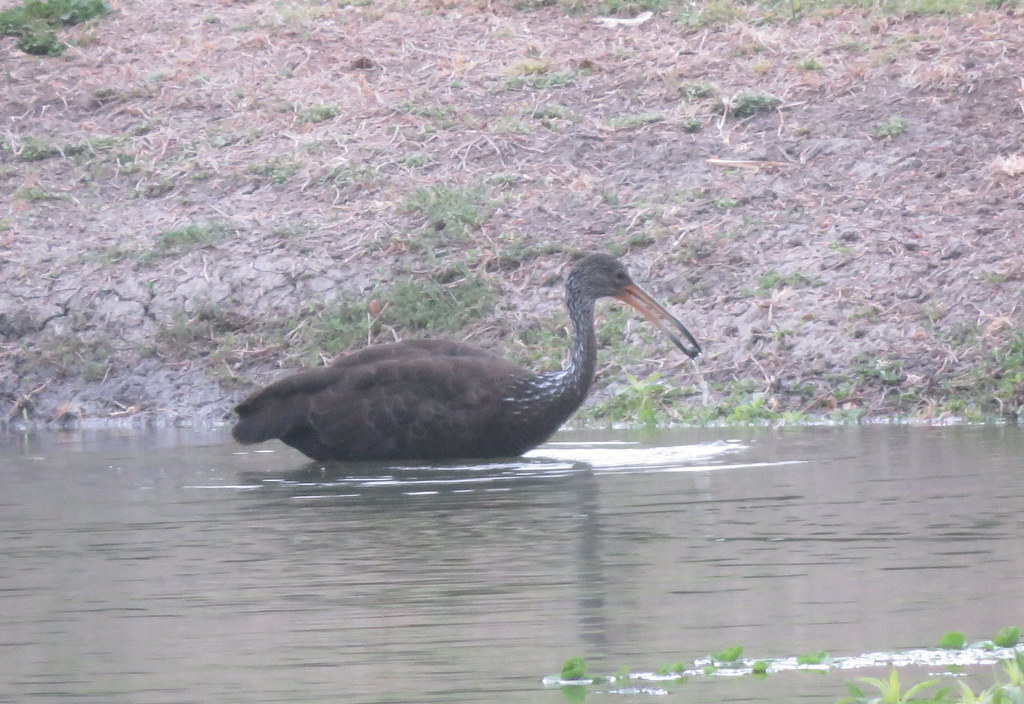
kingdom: Animalia
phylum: Chordata
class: Aves
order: Gruiformes
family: Aramidae
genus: Aramus
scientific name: Aramus guarauna
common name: Limpkin
